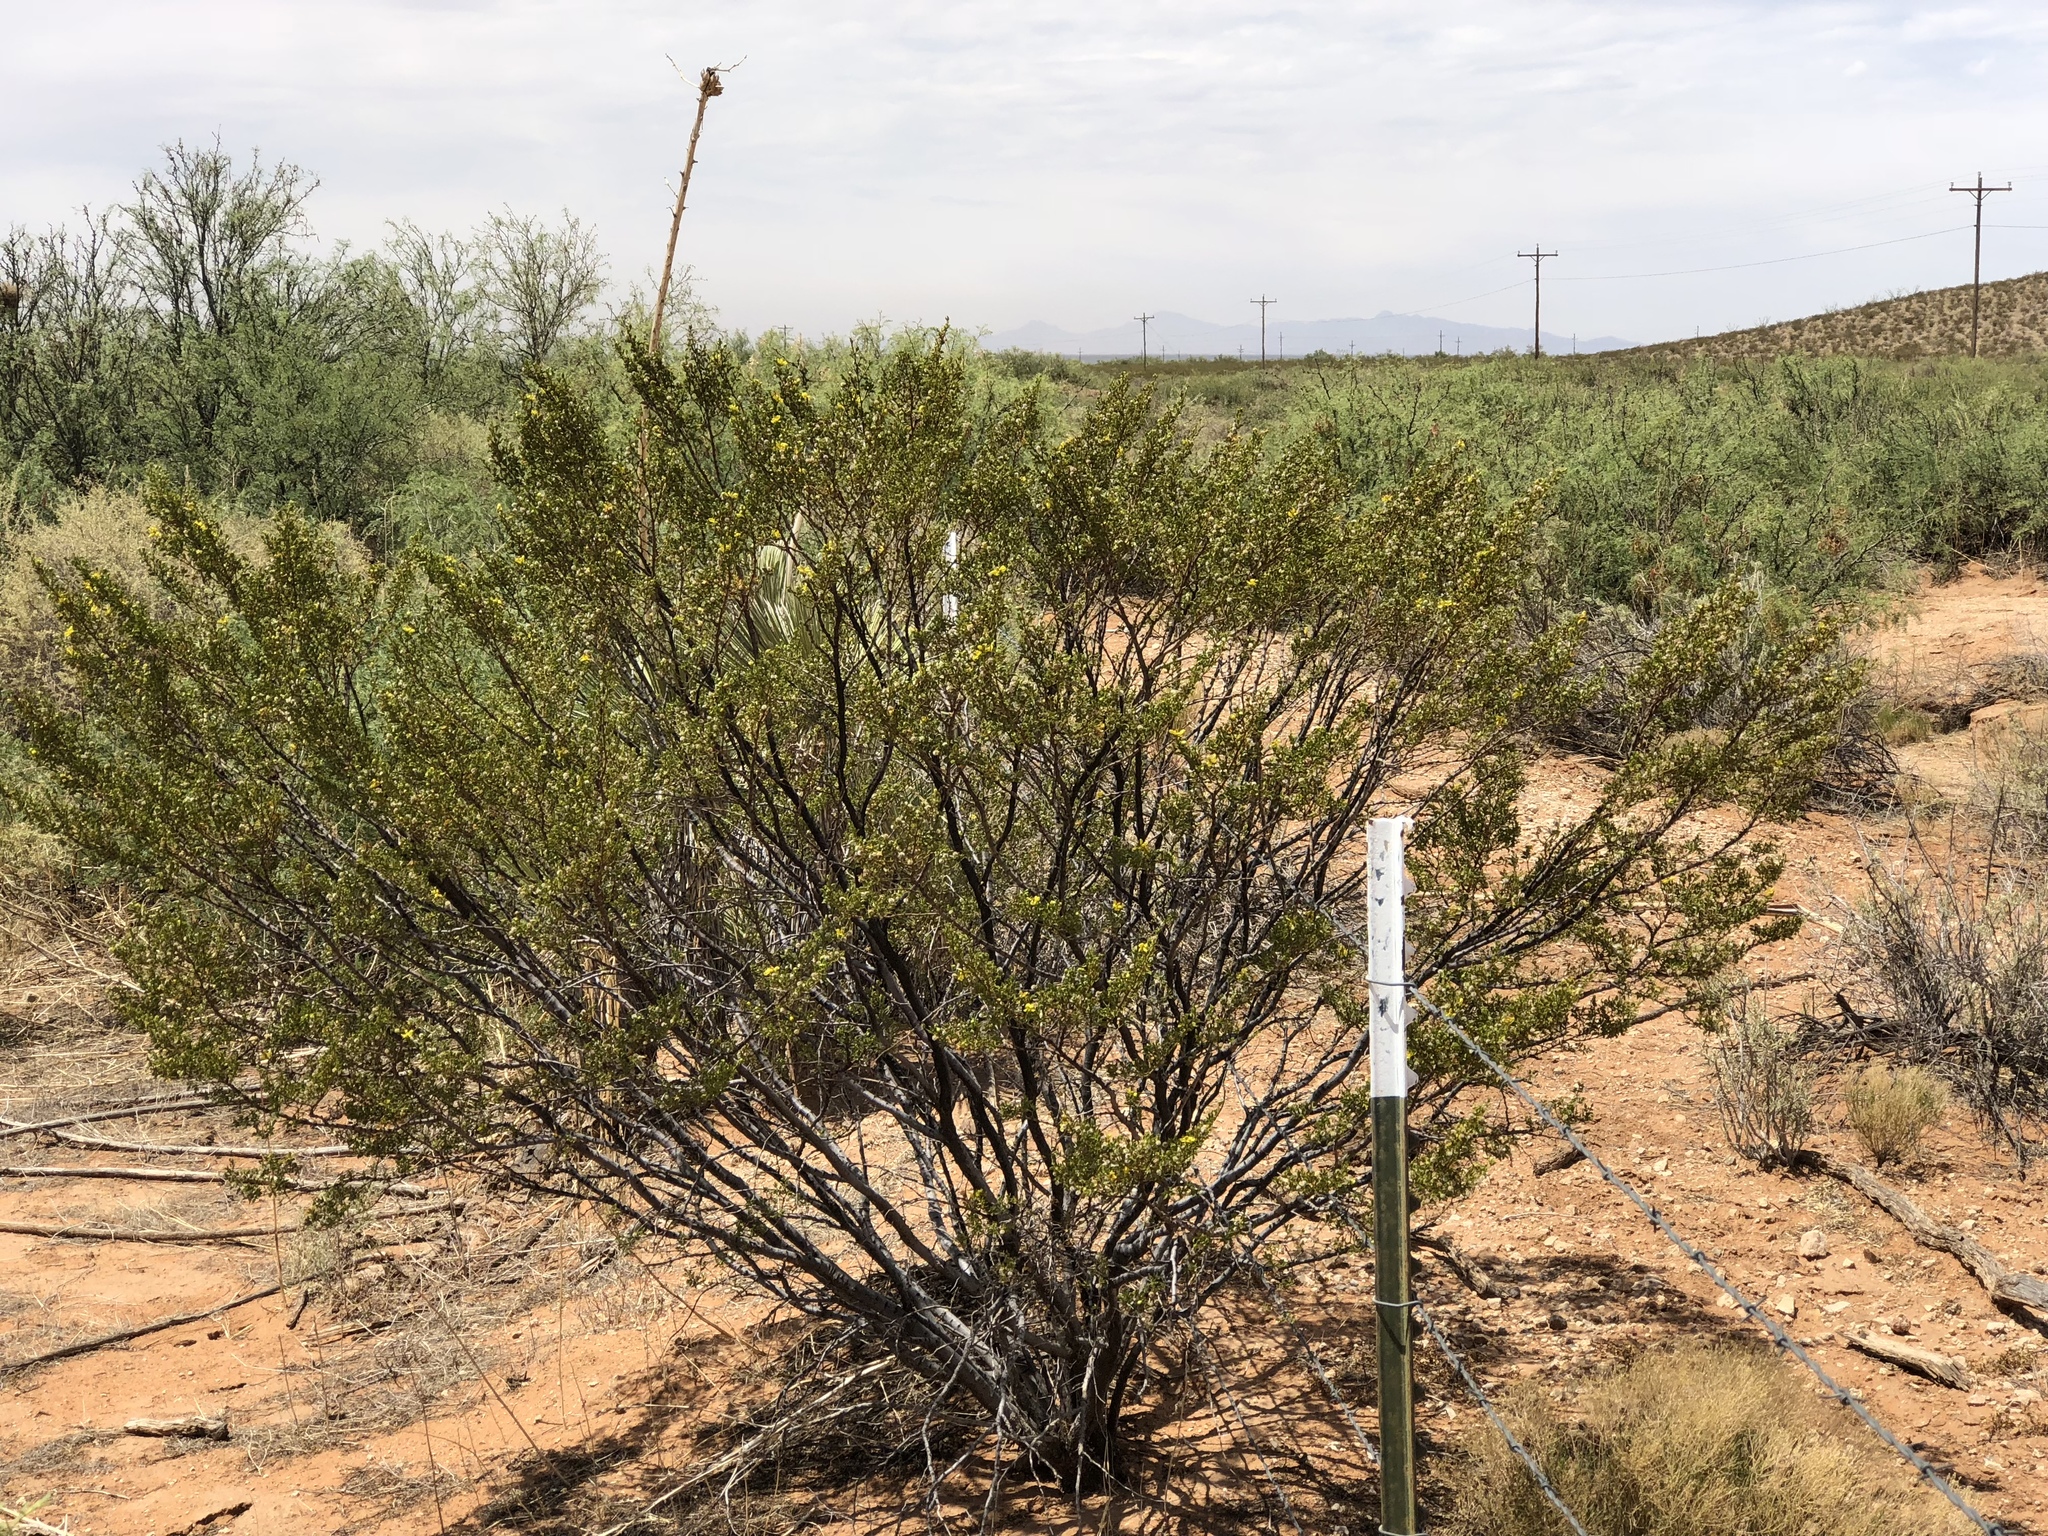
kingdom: Plantae
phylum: Tracheophyta
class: Magnoliopsida
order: Zygophyllales
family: Zygophyllaceae
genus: Larrea
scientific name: Larrea tridentata
